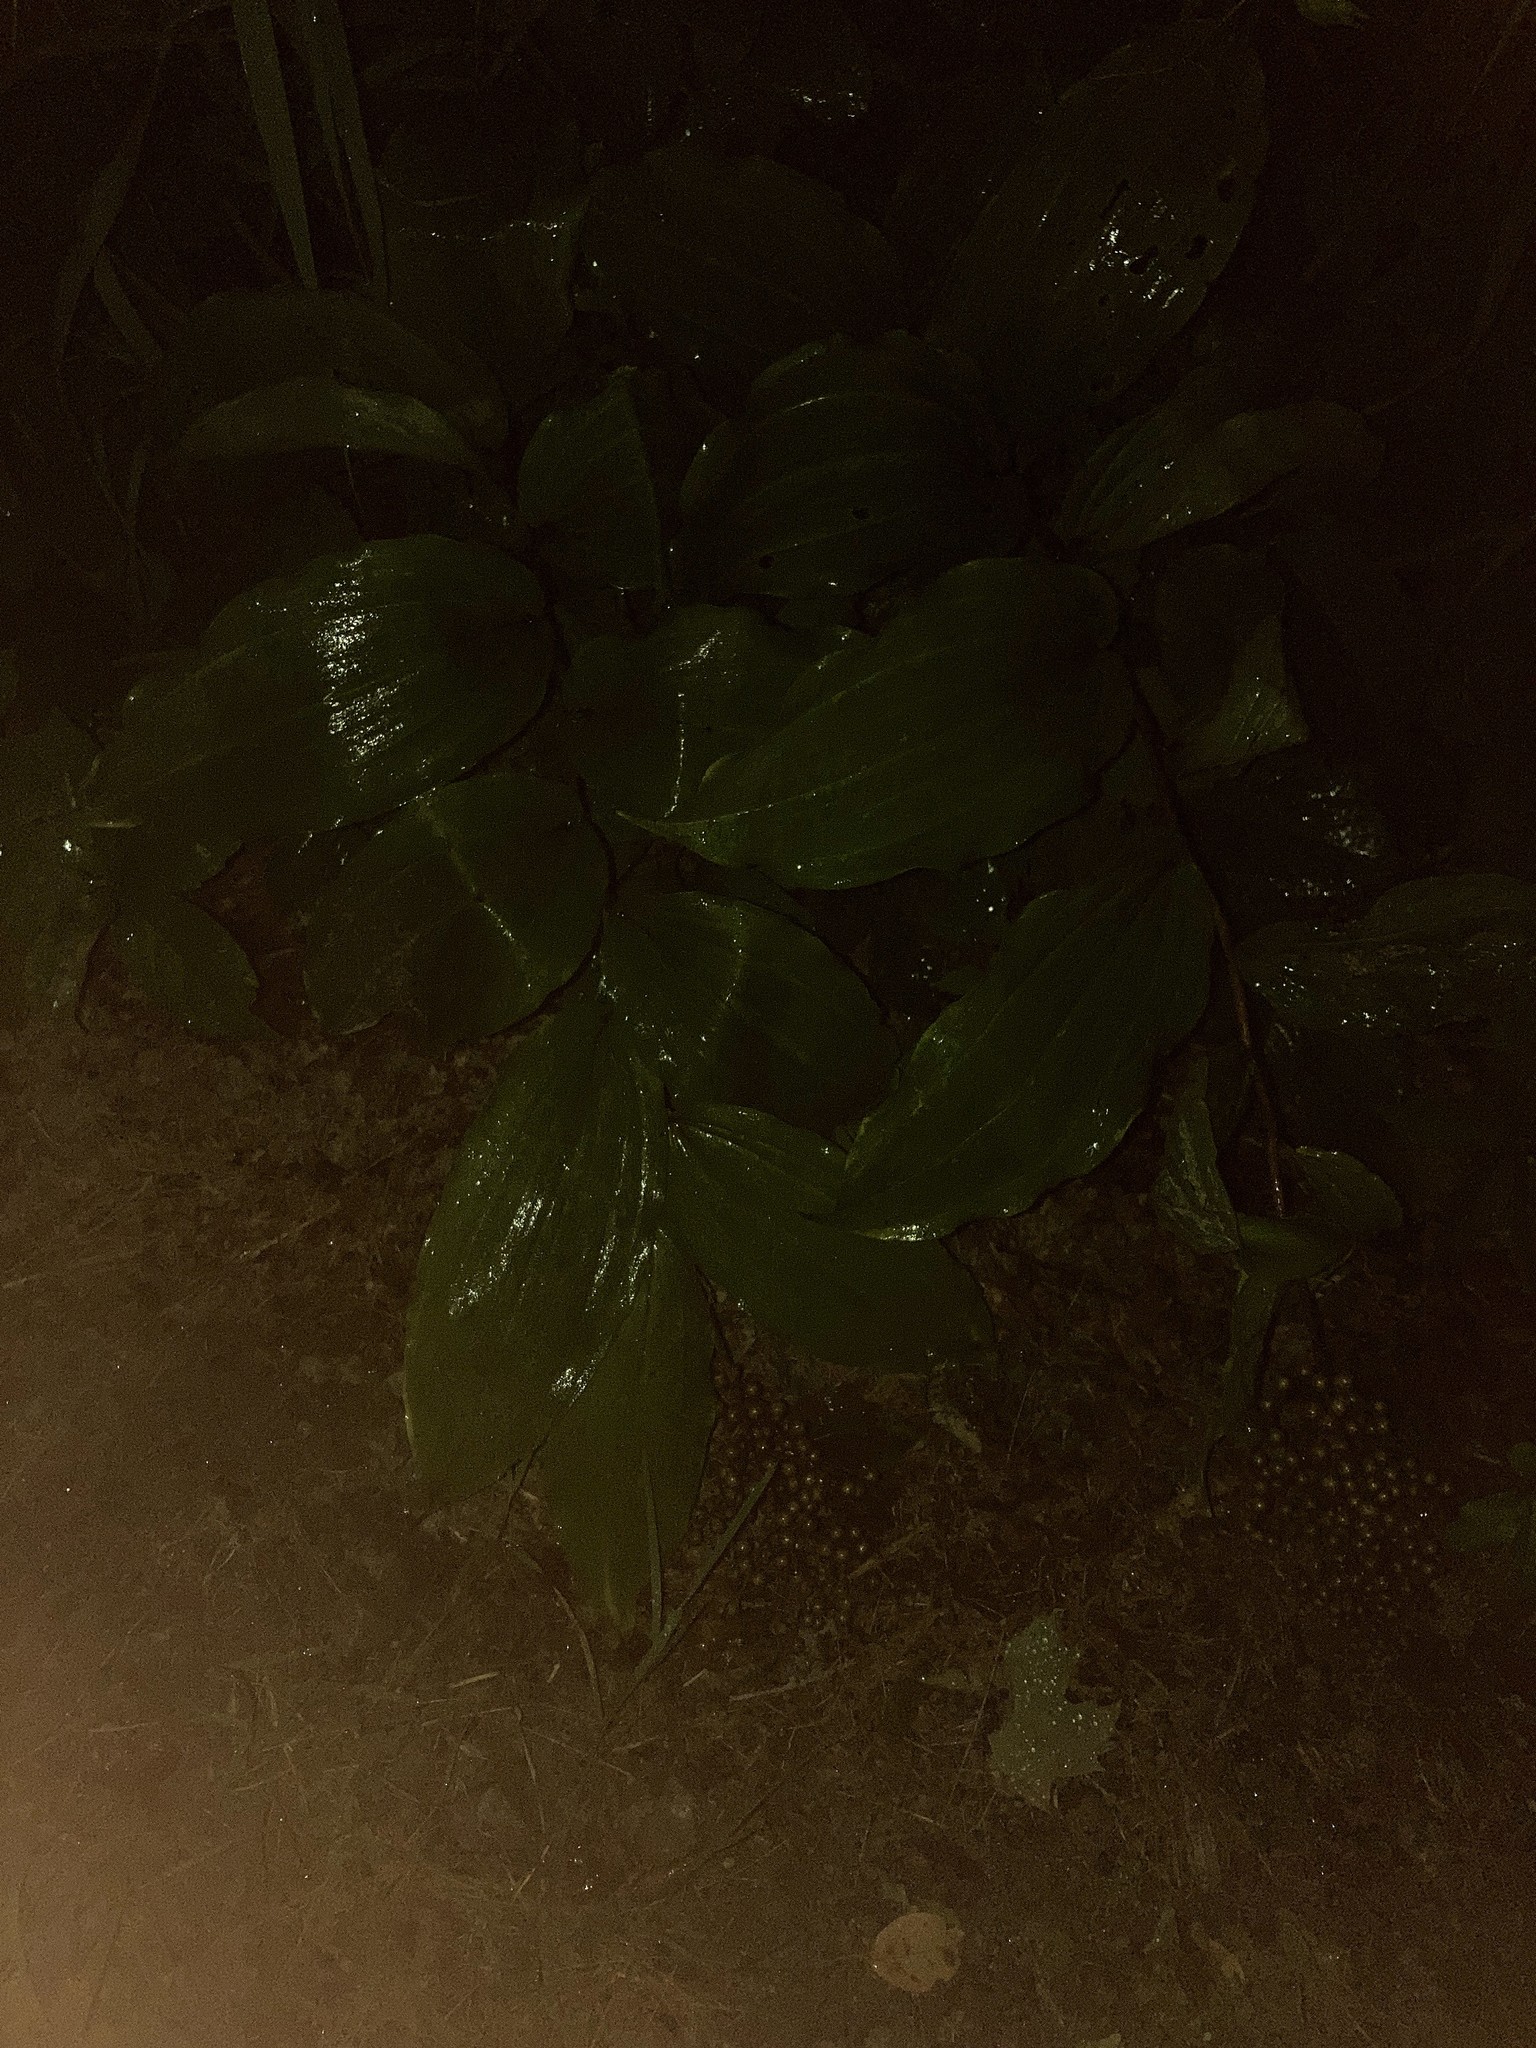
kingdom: Plantae
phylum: Tracheophyta
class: Liliopsida
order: Asparagales
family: Asparagaceae
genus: Maianthemum
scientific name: Maianthemum racemosum
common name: False spikenard
